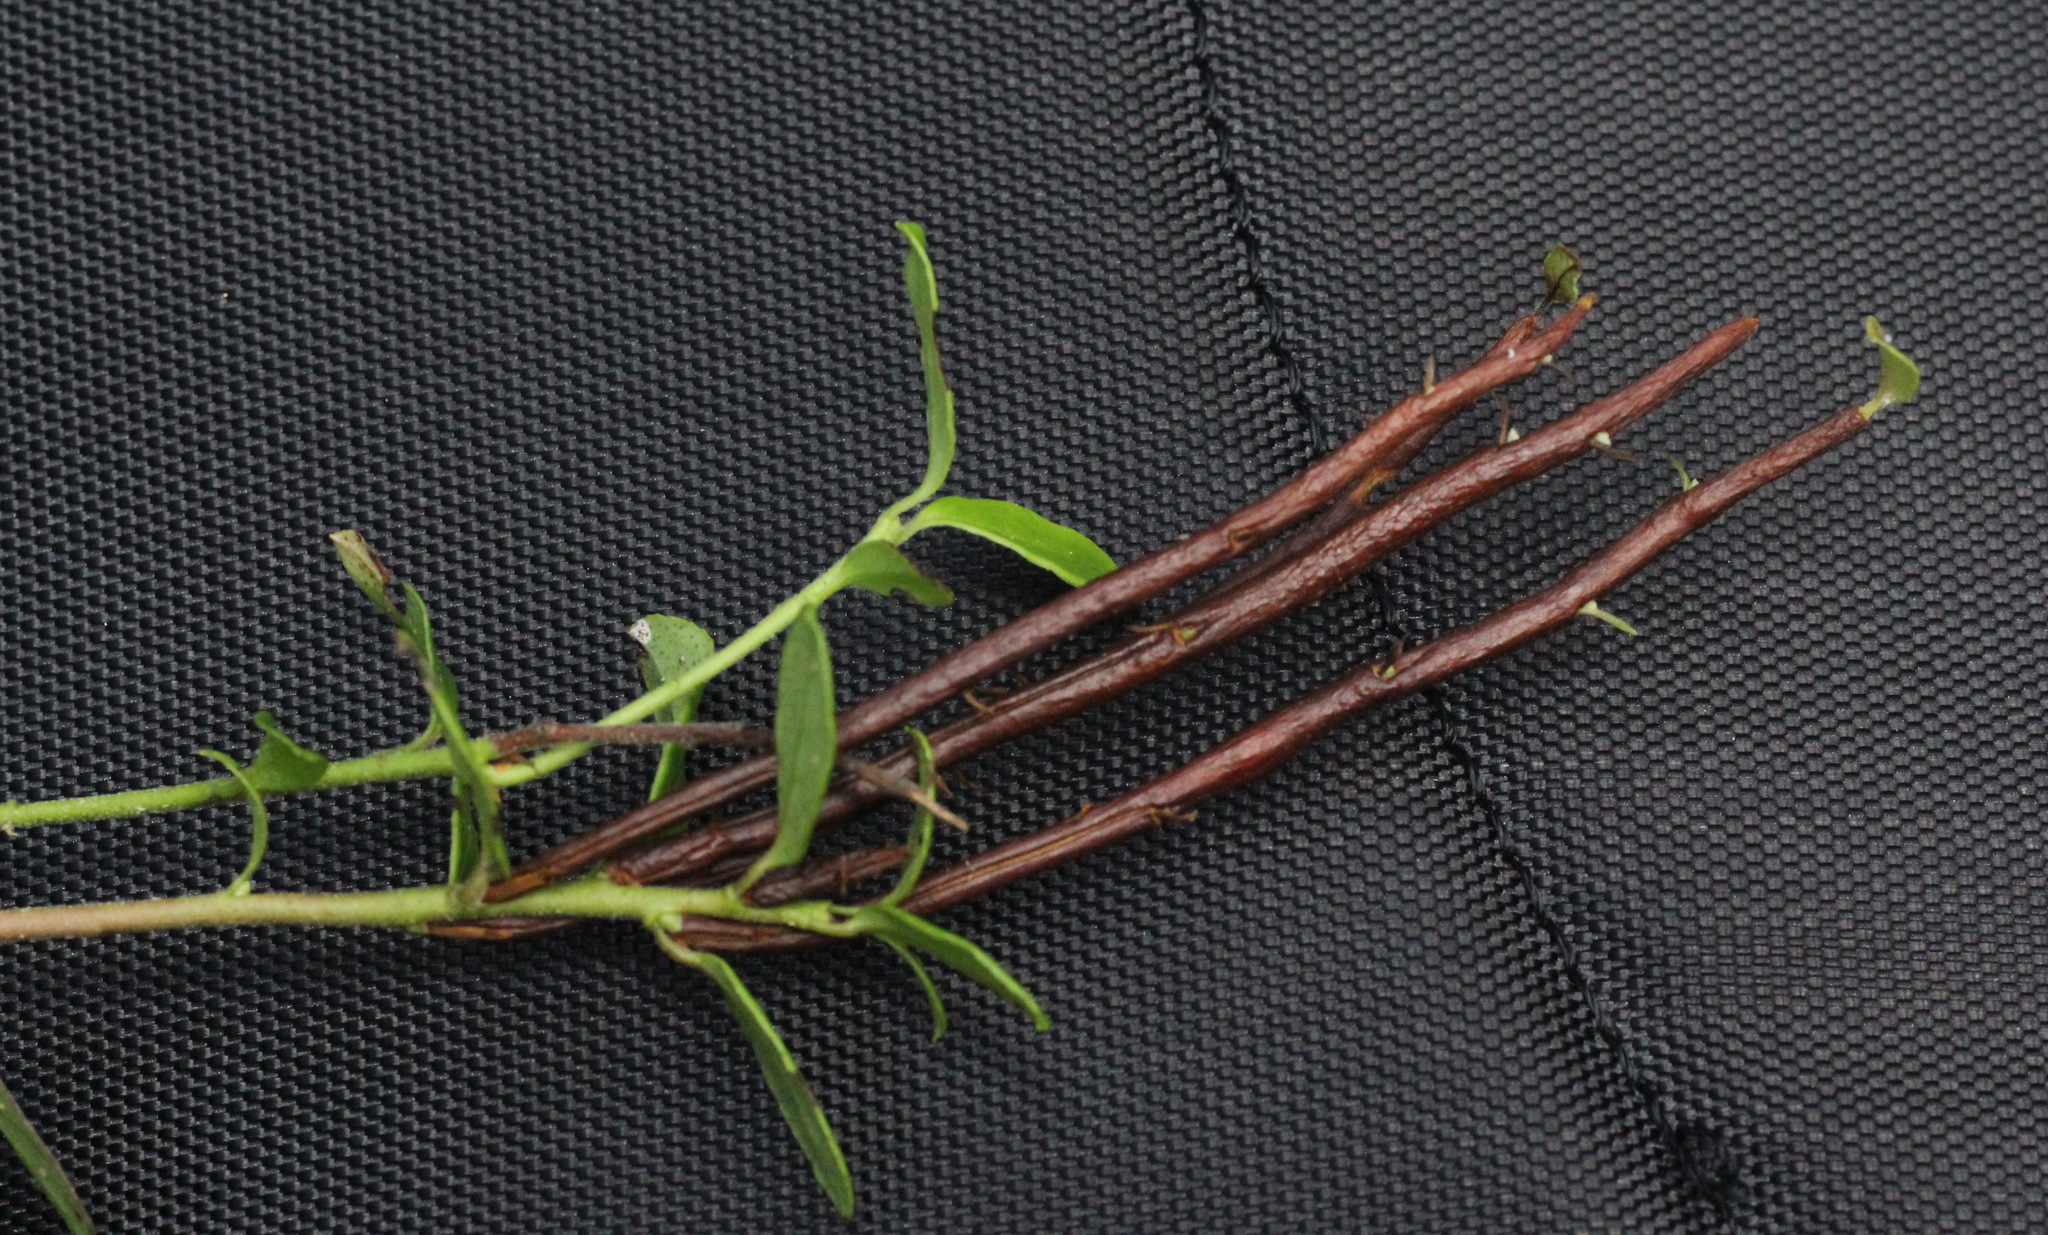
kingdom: Fungi
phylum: Basidiomycota
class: Pucciniomycetes
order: Pucciniales
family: Pucciniastraceae
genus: Calyptospora
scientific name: Calyptospora columnaris
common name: Huckleberry broom rust fungus
